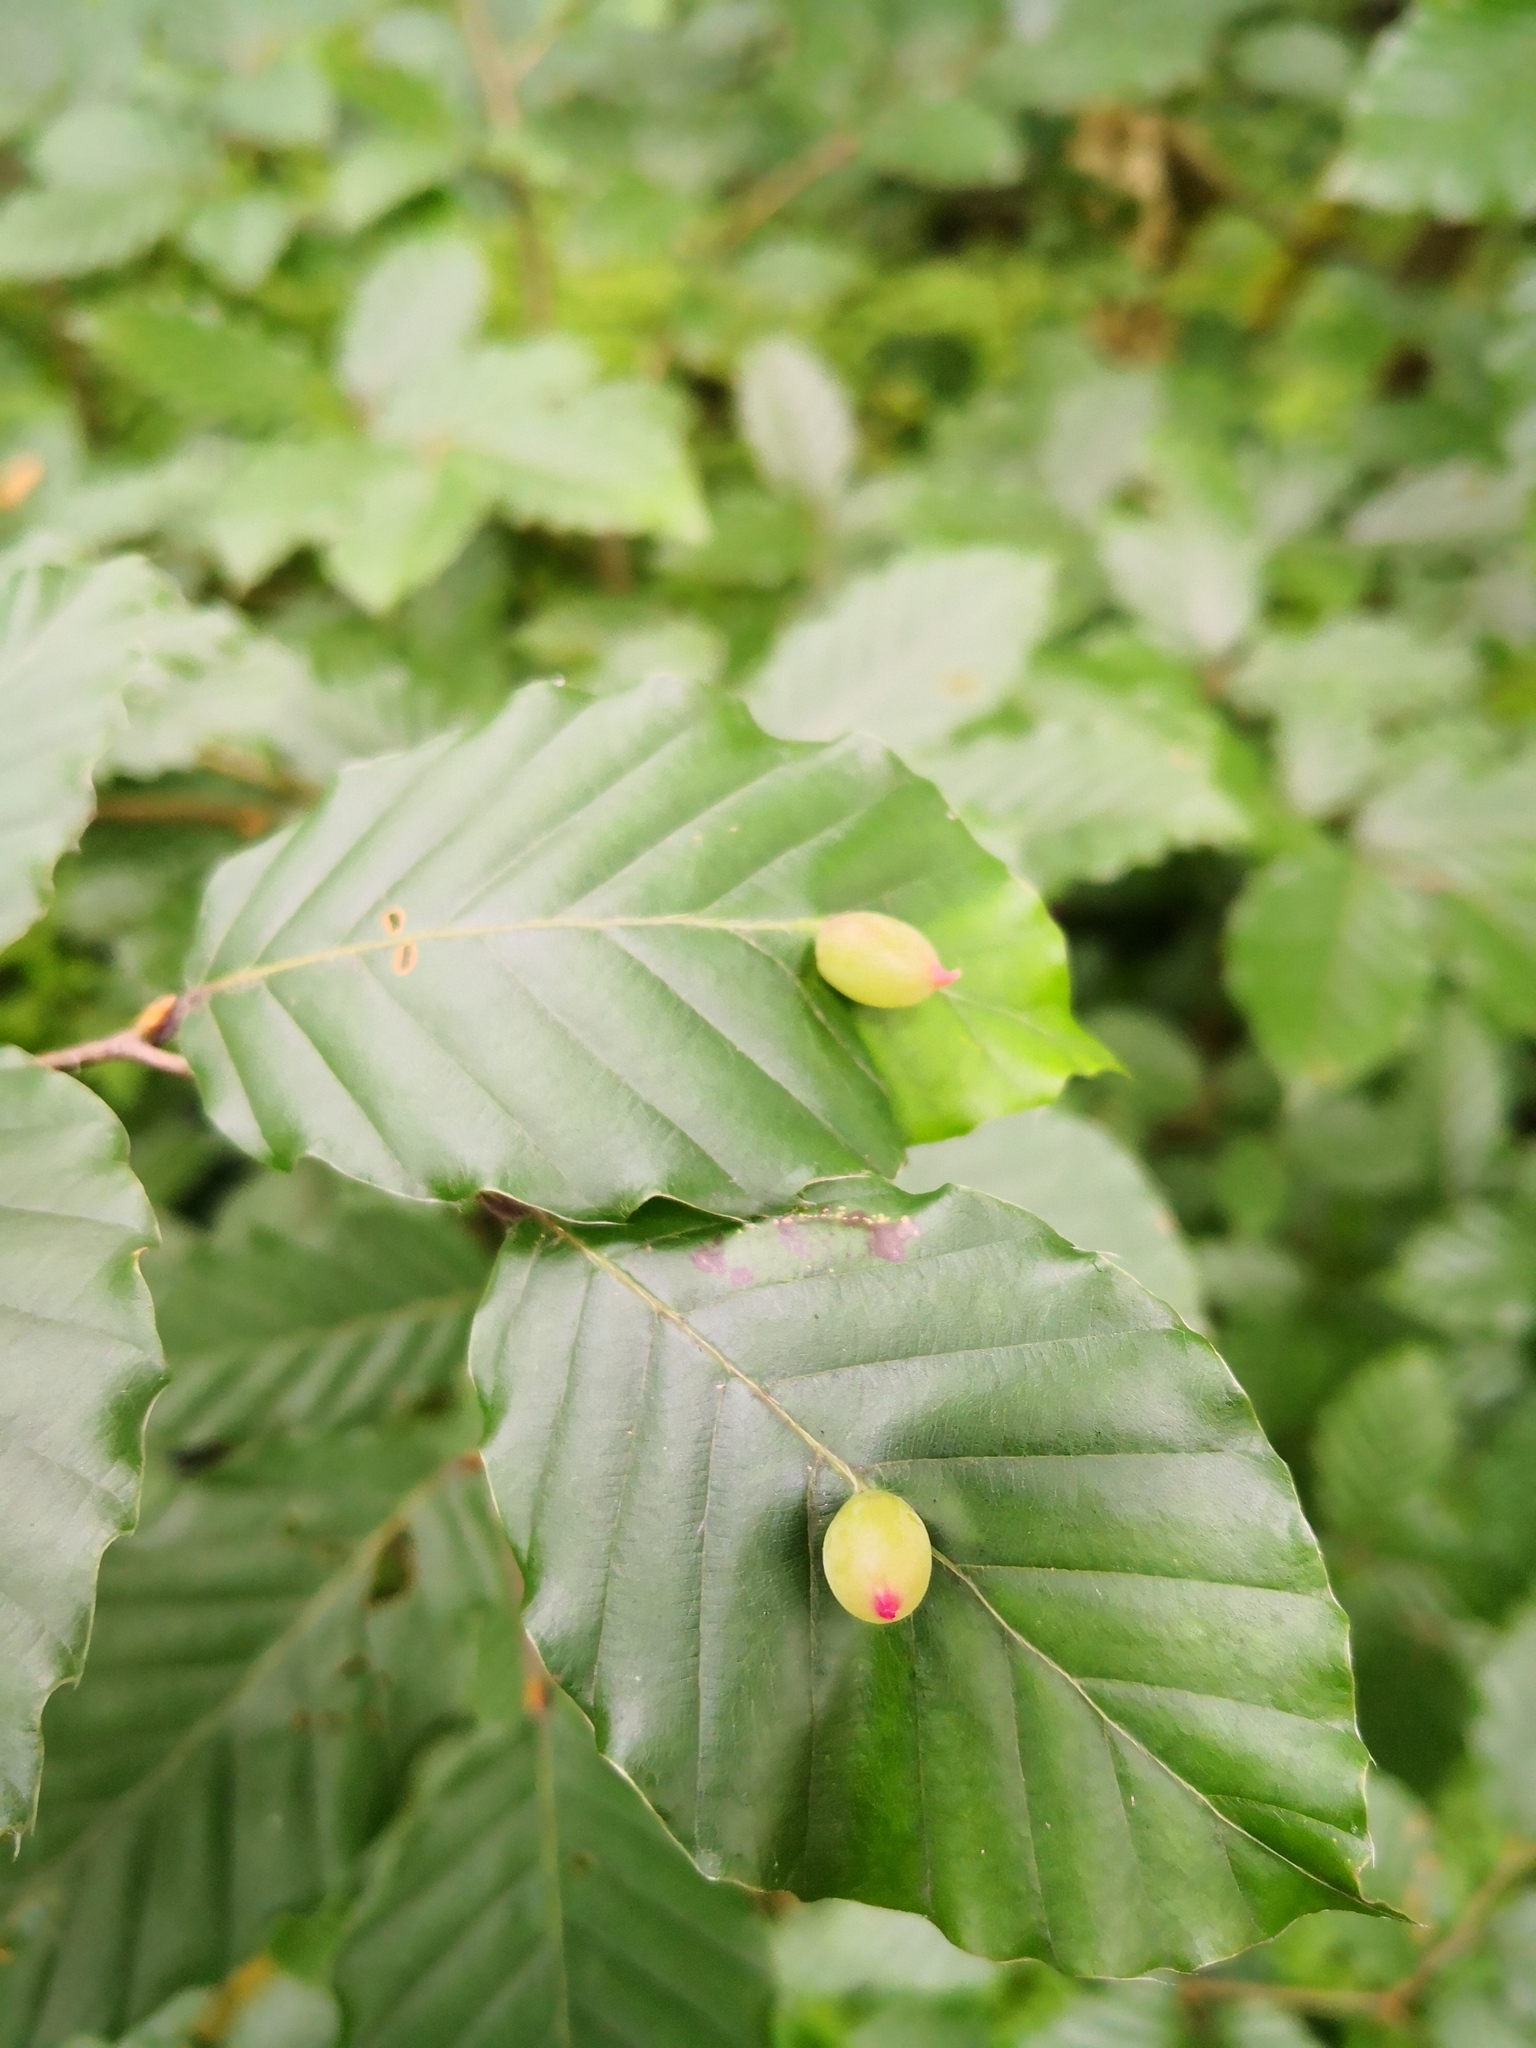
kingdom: Animalia
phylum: Arthropoda
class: Insecta
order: Diptera
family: Cecidomyiidae
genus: Mikiola
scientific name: Mikiola fagi
